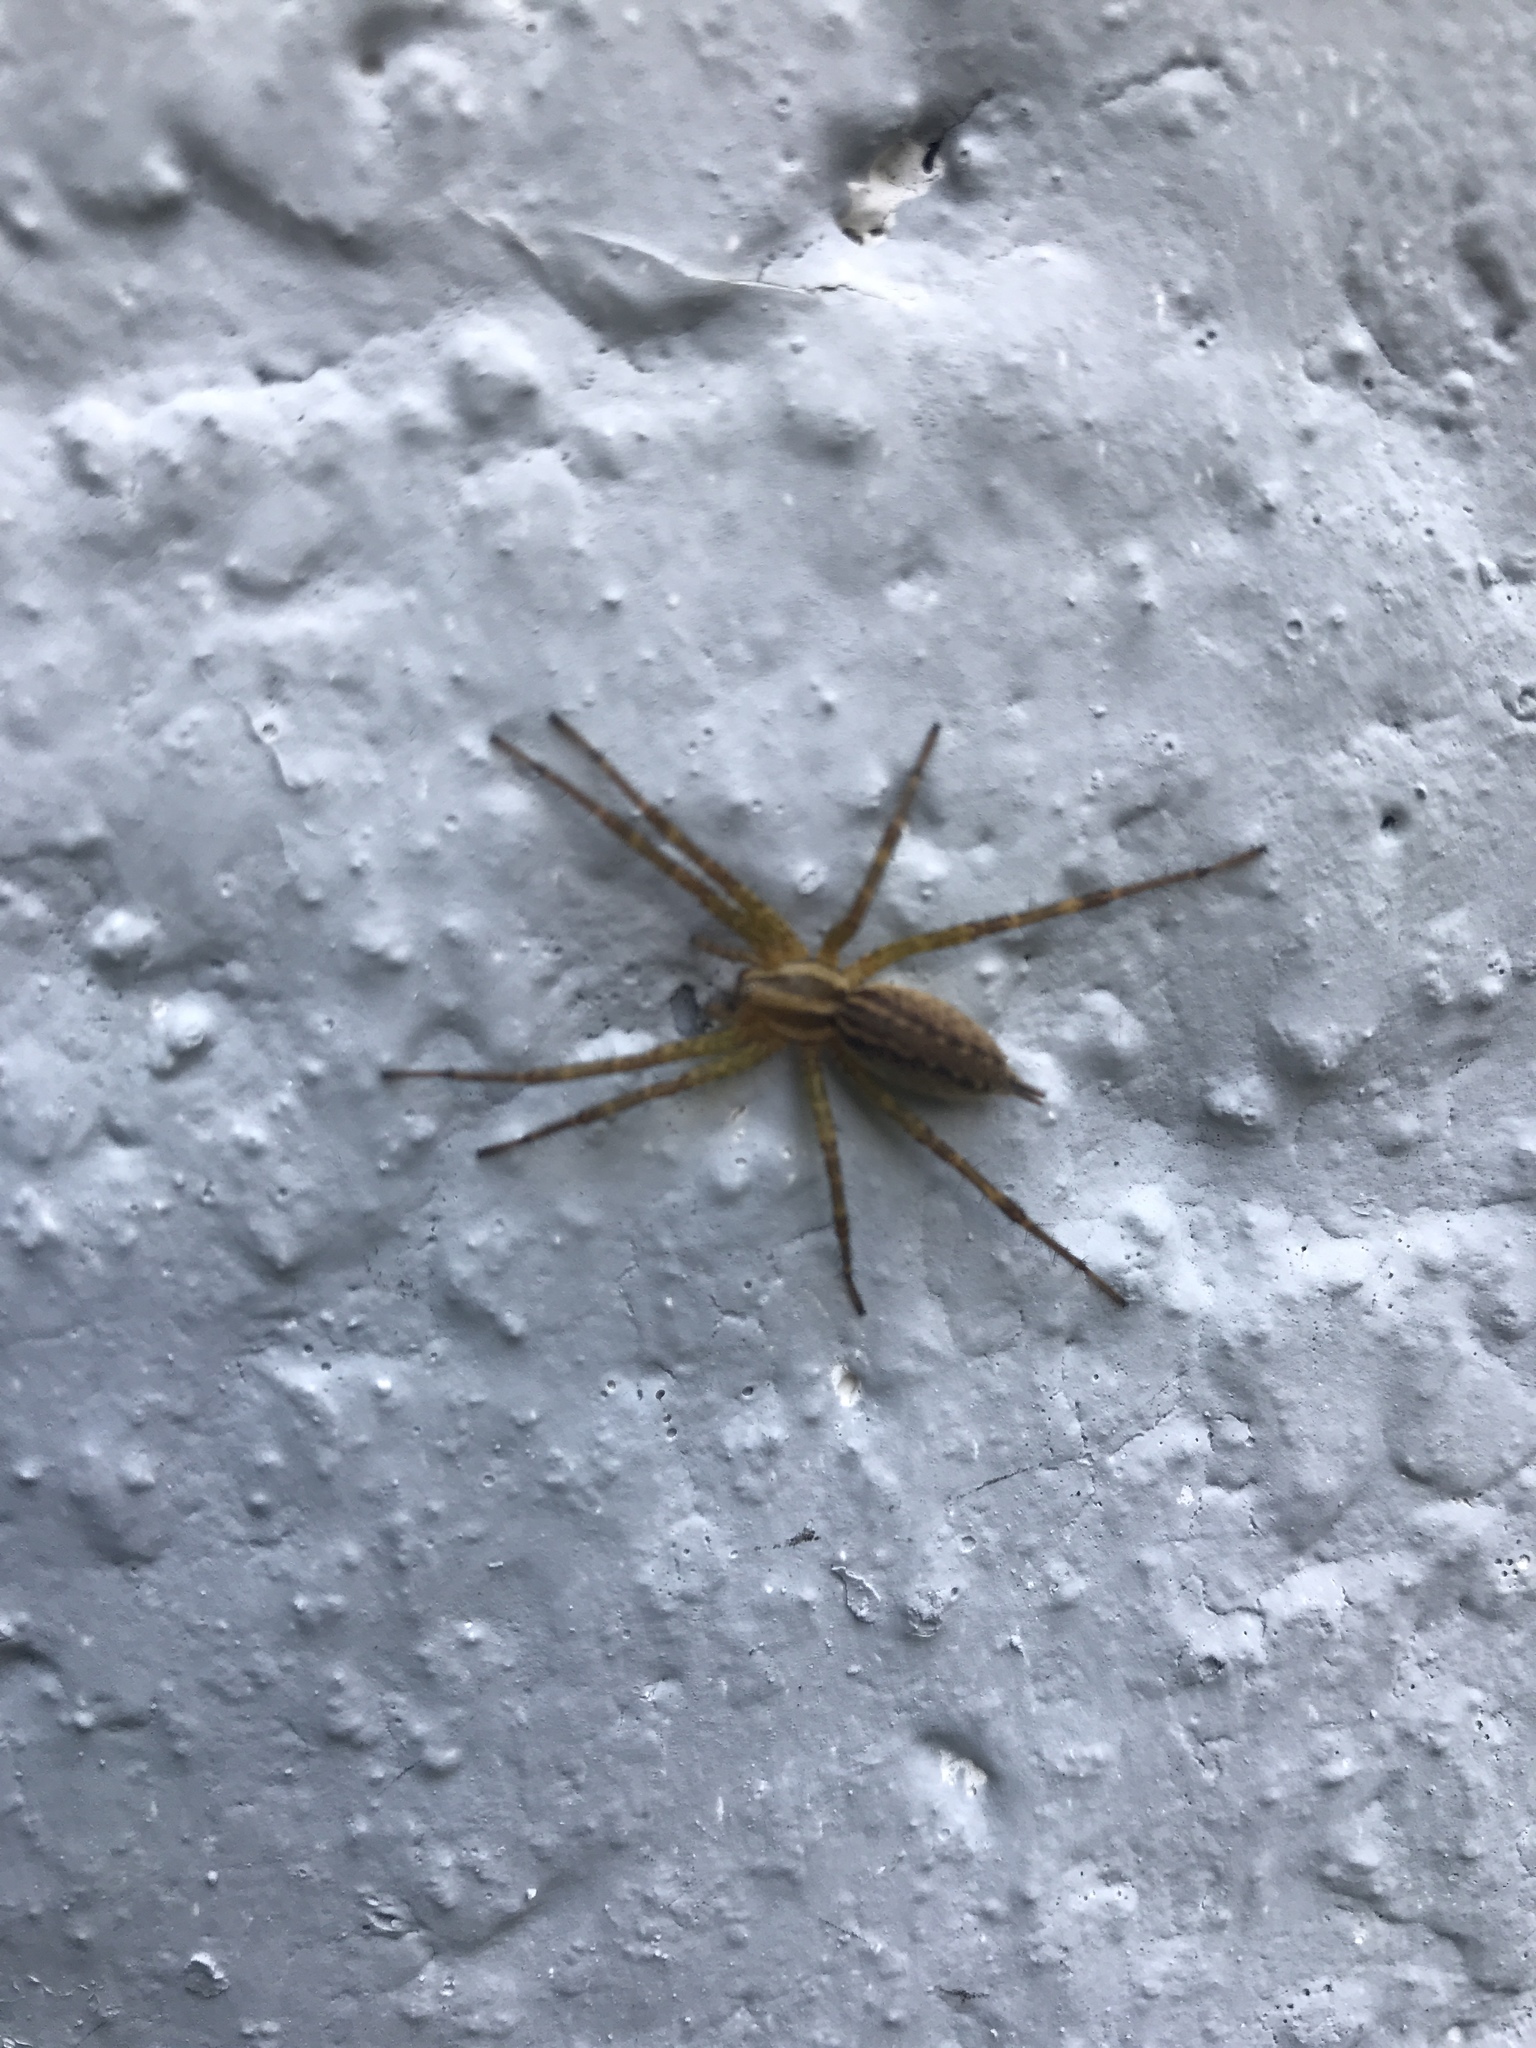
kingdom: Animalia
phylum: Arthropoda
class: Arachnida
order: Araneae
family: Agelenidae
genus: Agelenopsis
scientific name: Agelenopsis
